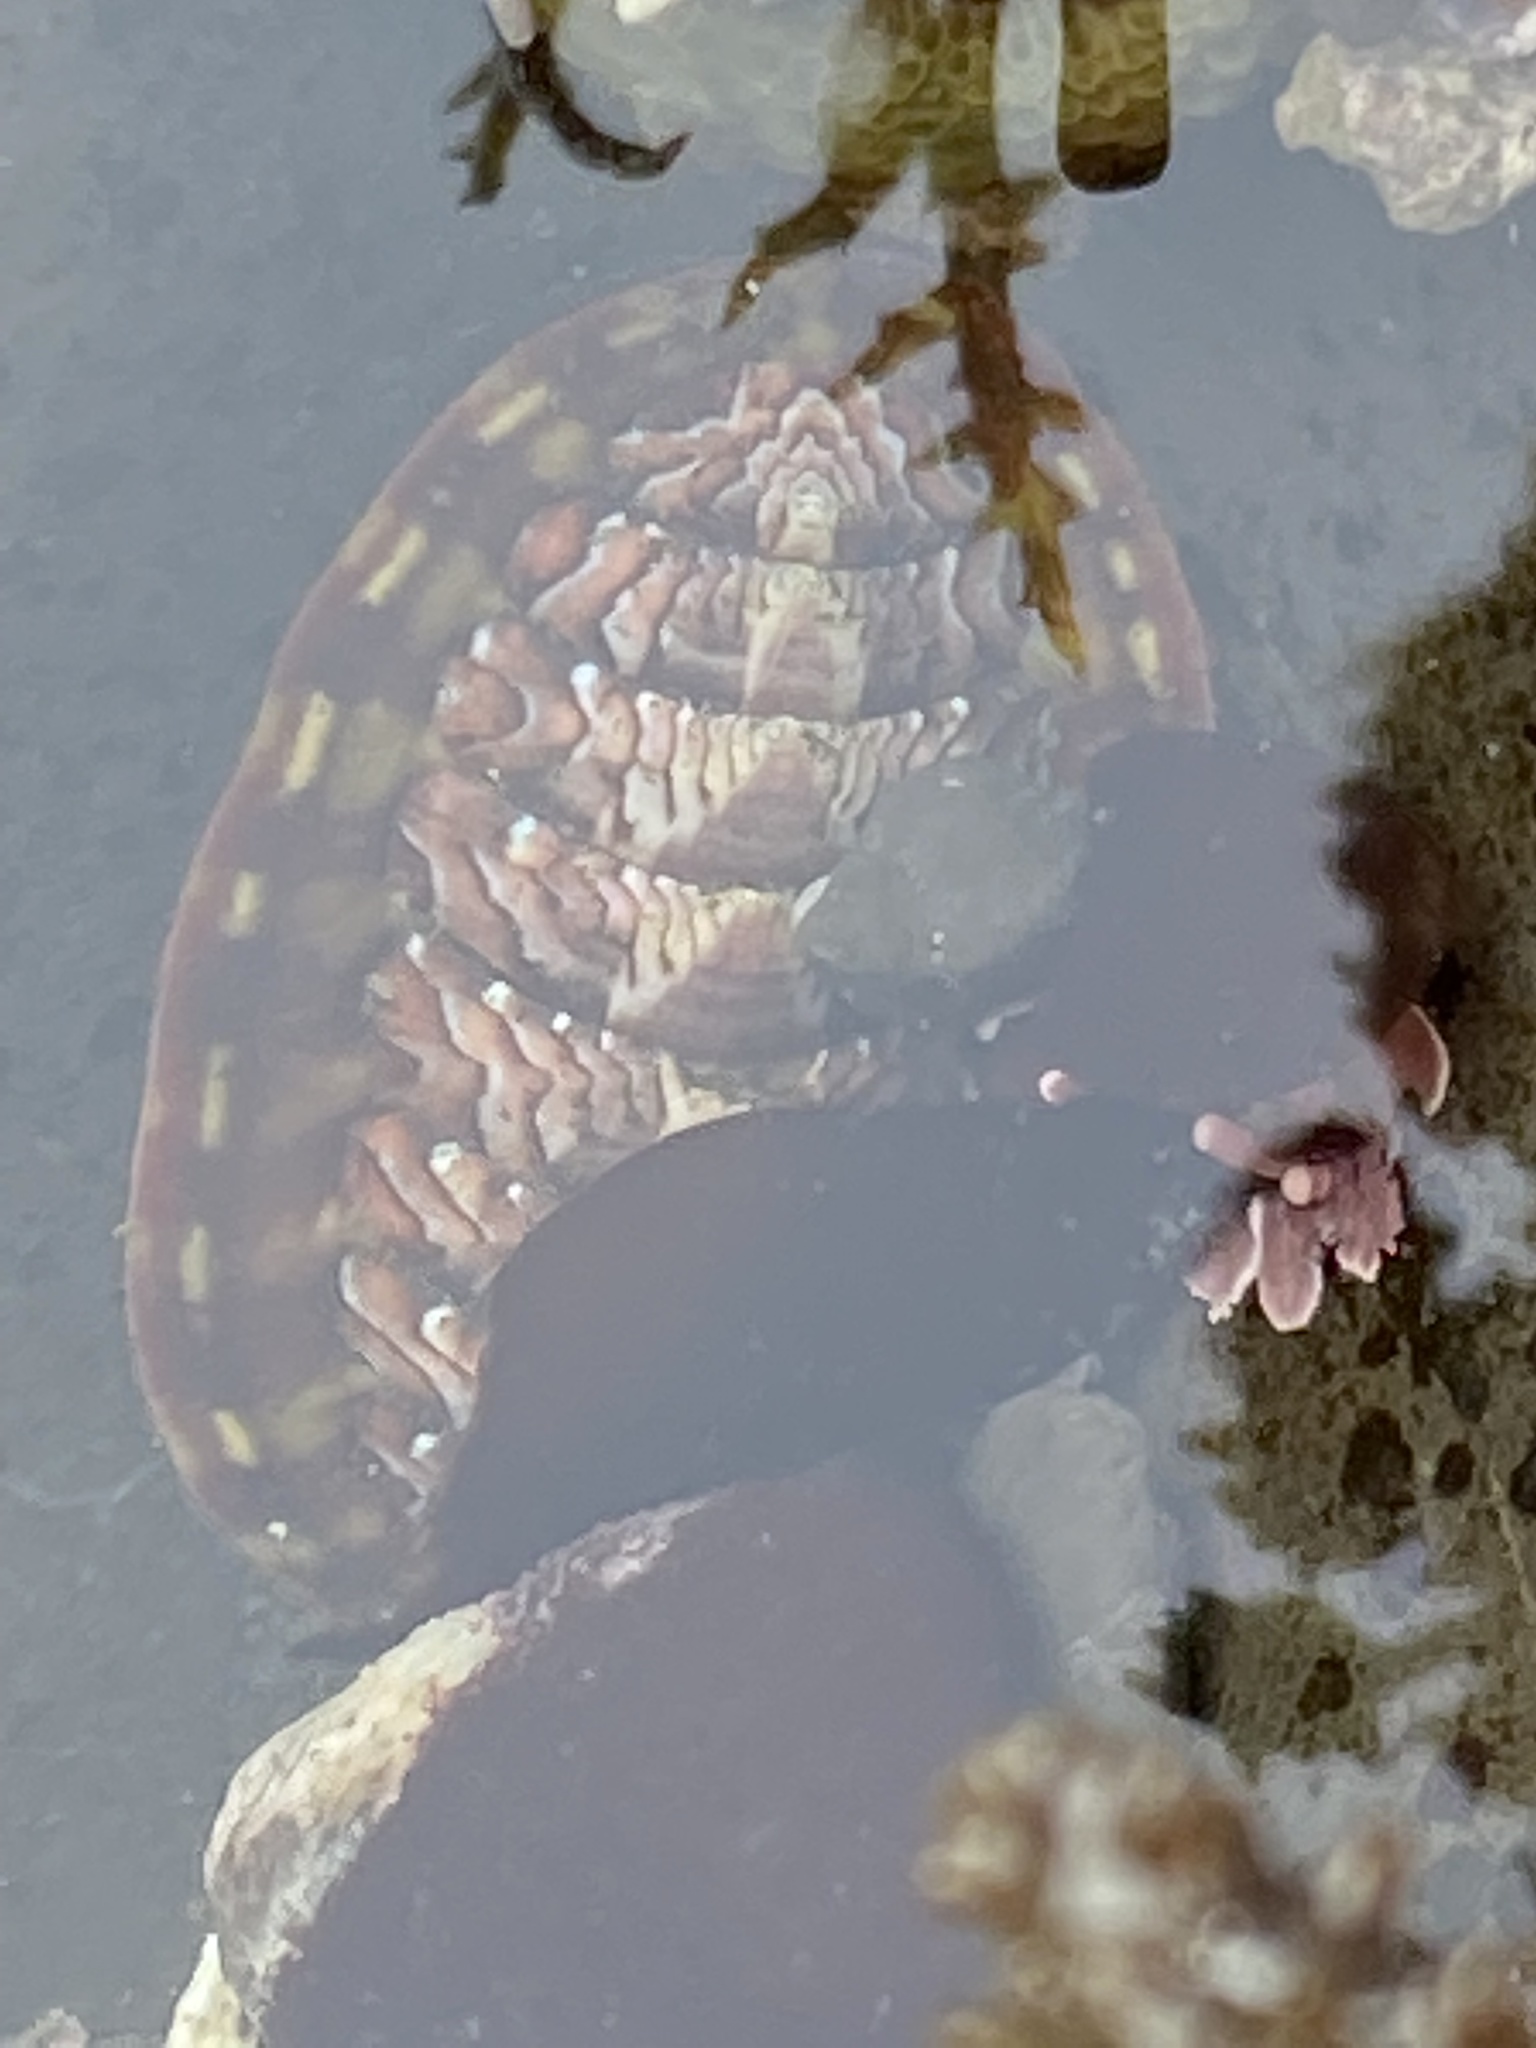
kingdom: Animalia
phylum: Mollusca
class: Polyplacophora
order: Chitonida
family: Tonicellidae
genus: Tonicella
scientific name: Tonicella lokii
